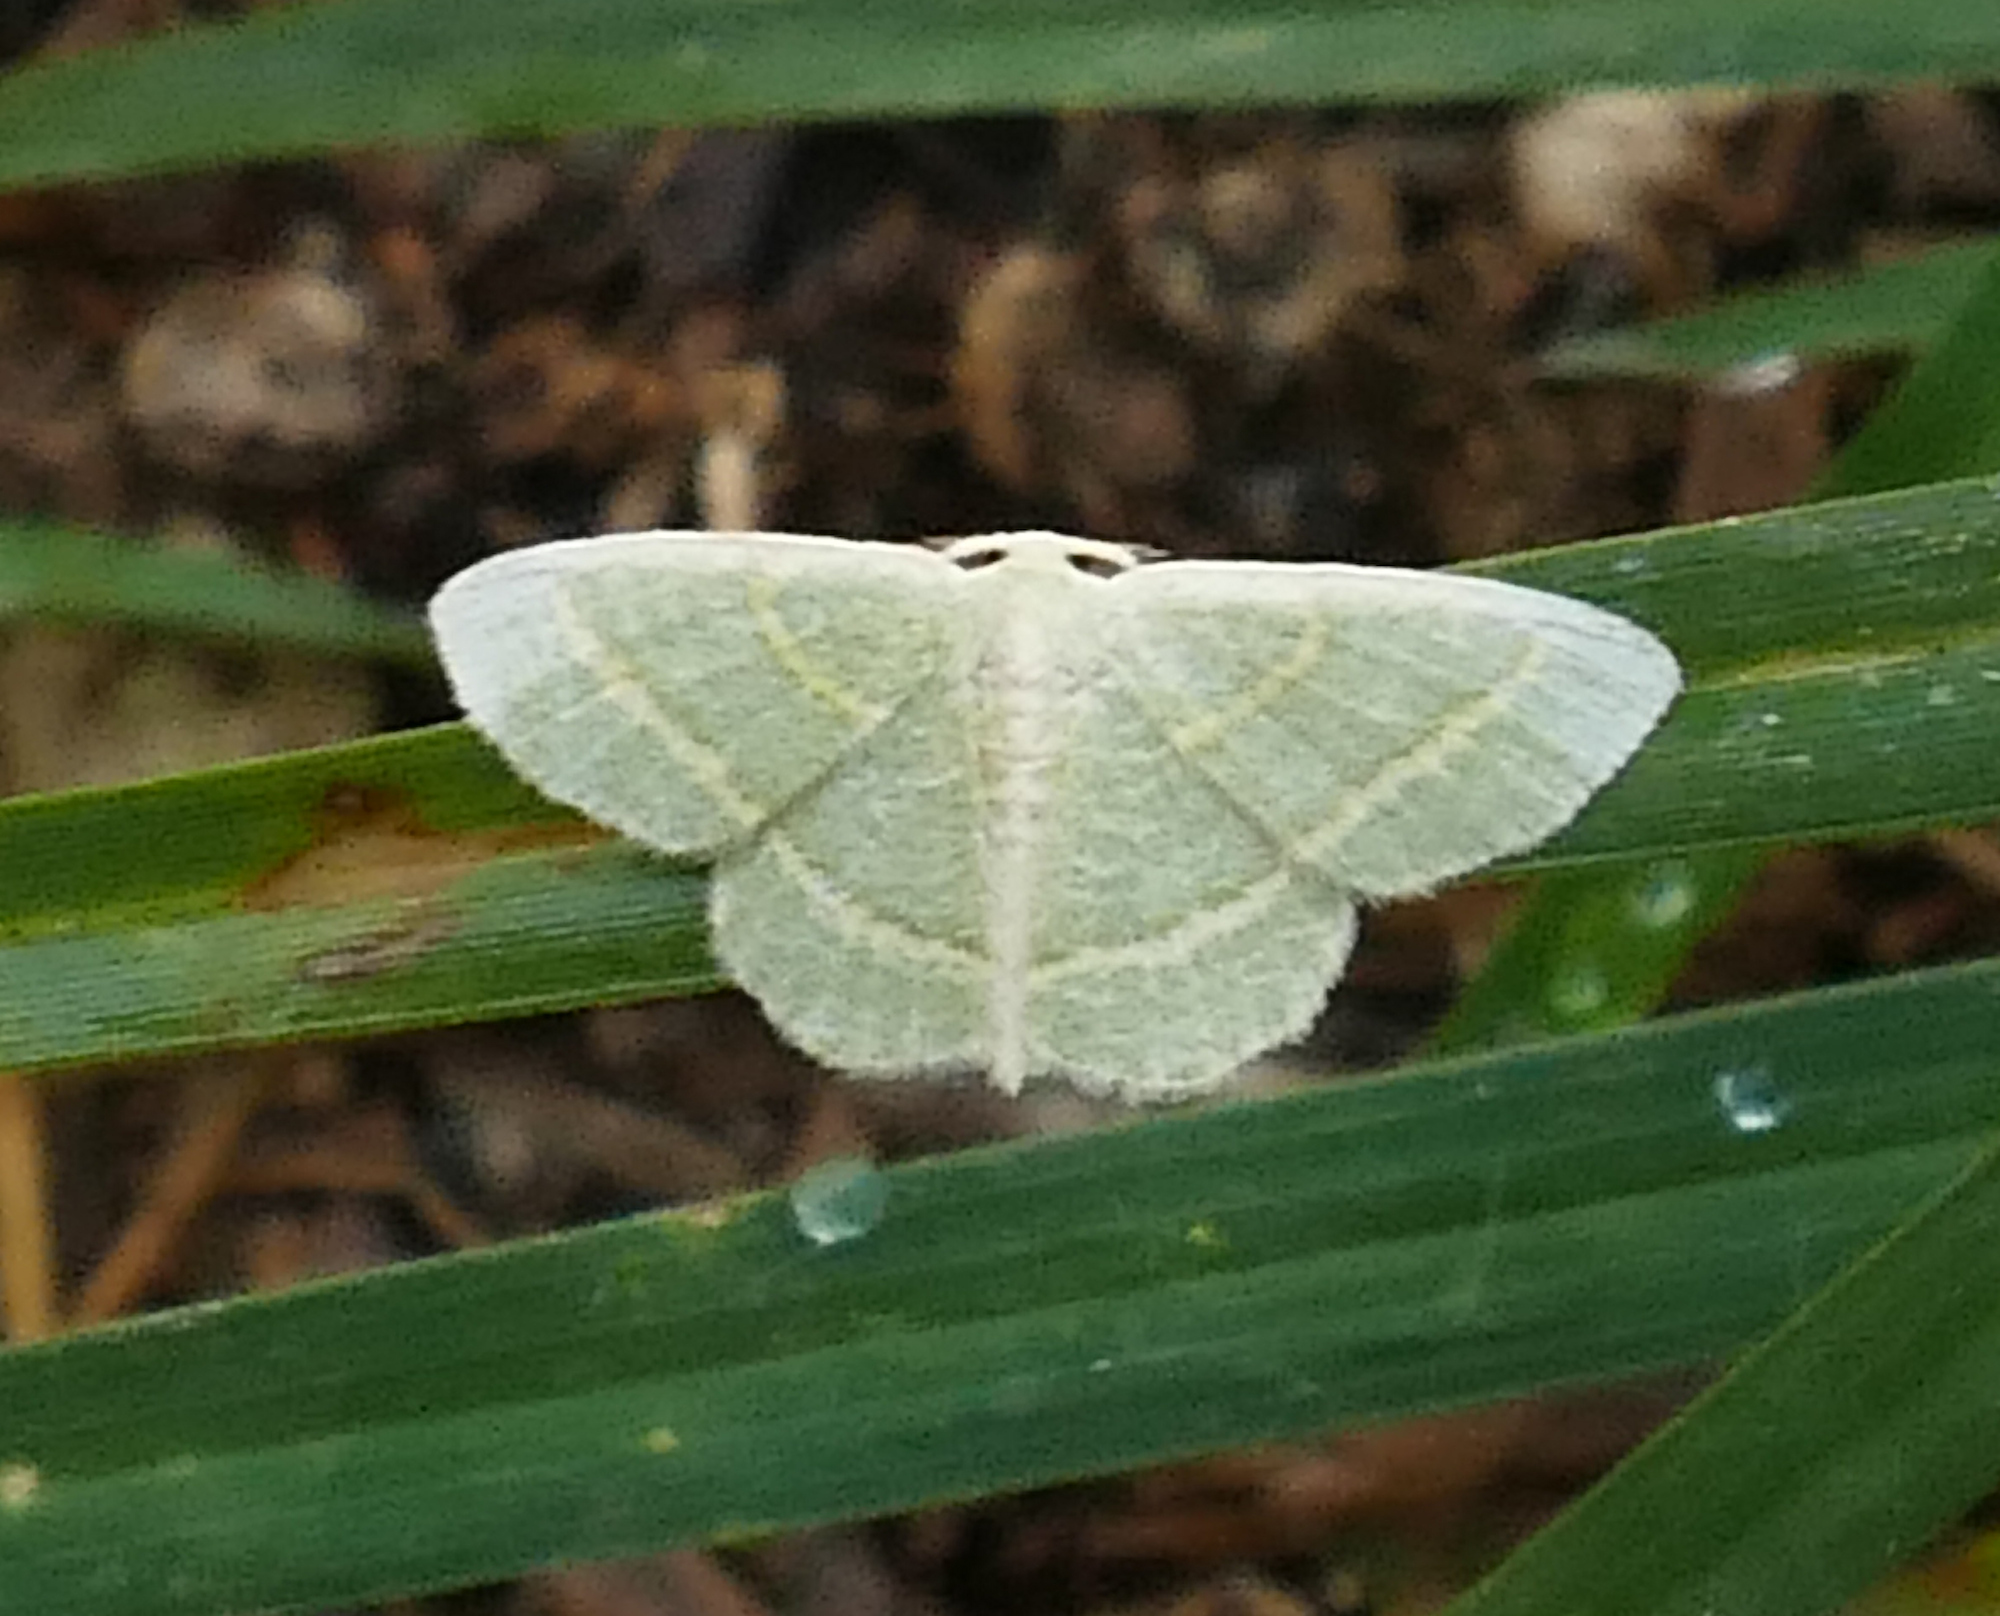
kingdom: Animalia
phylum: Arthropoda
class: Insecta
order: Lepidoptera
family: Geometridae
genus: Chlorochlamys
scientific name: Chlorochlamys chloroleucaria
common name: Blackberry looper
